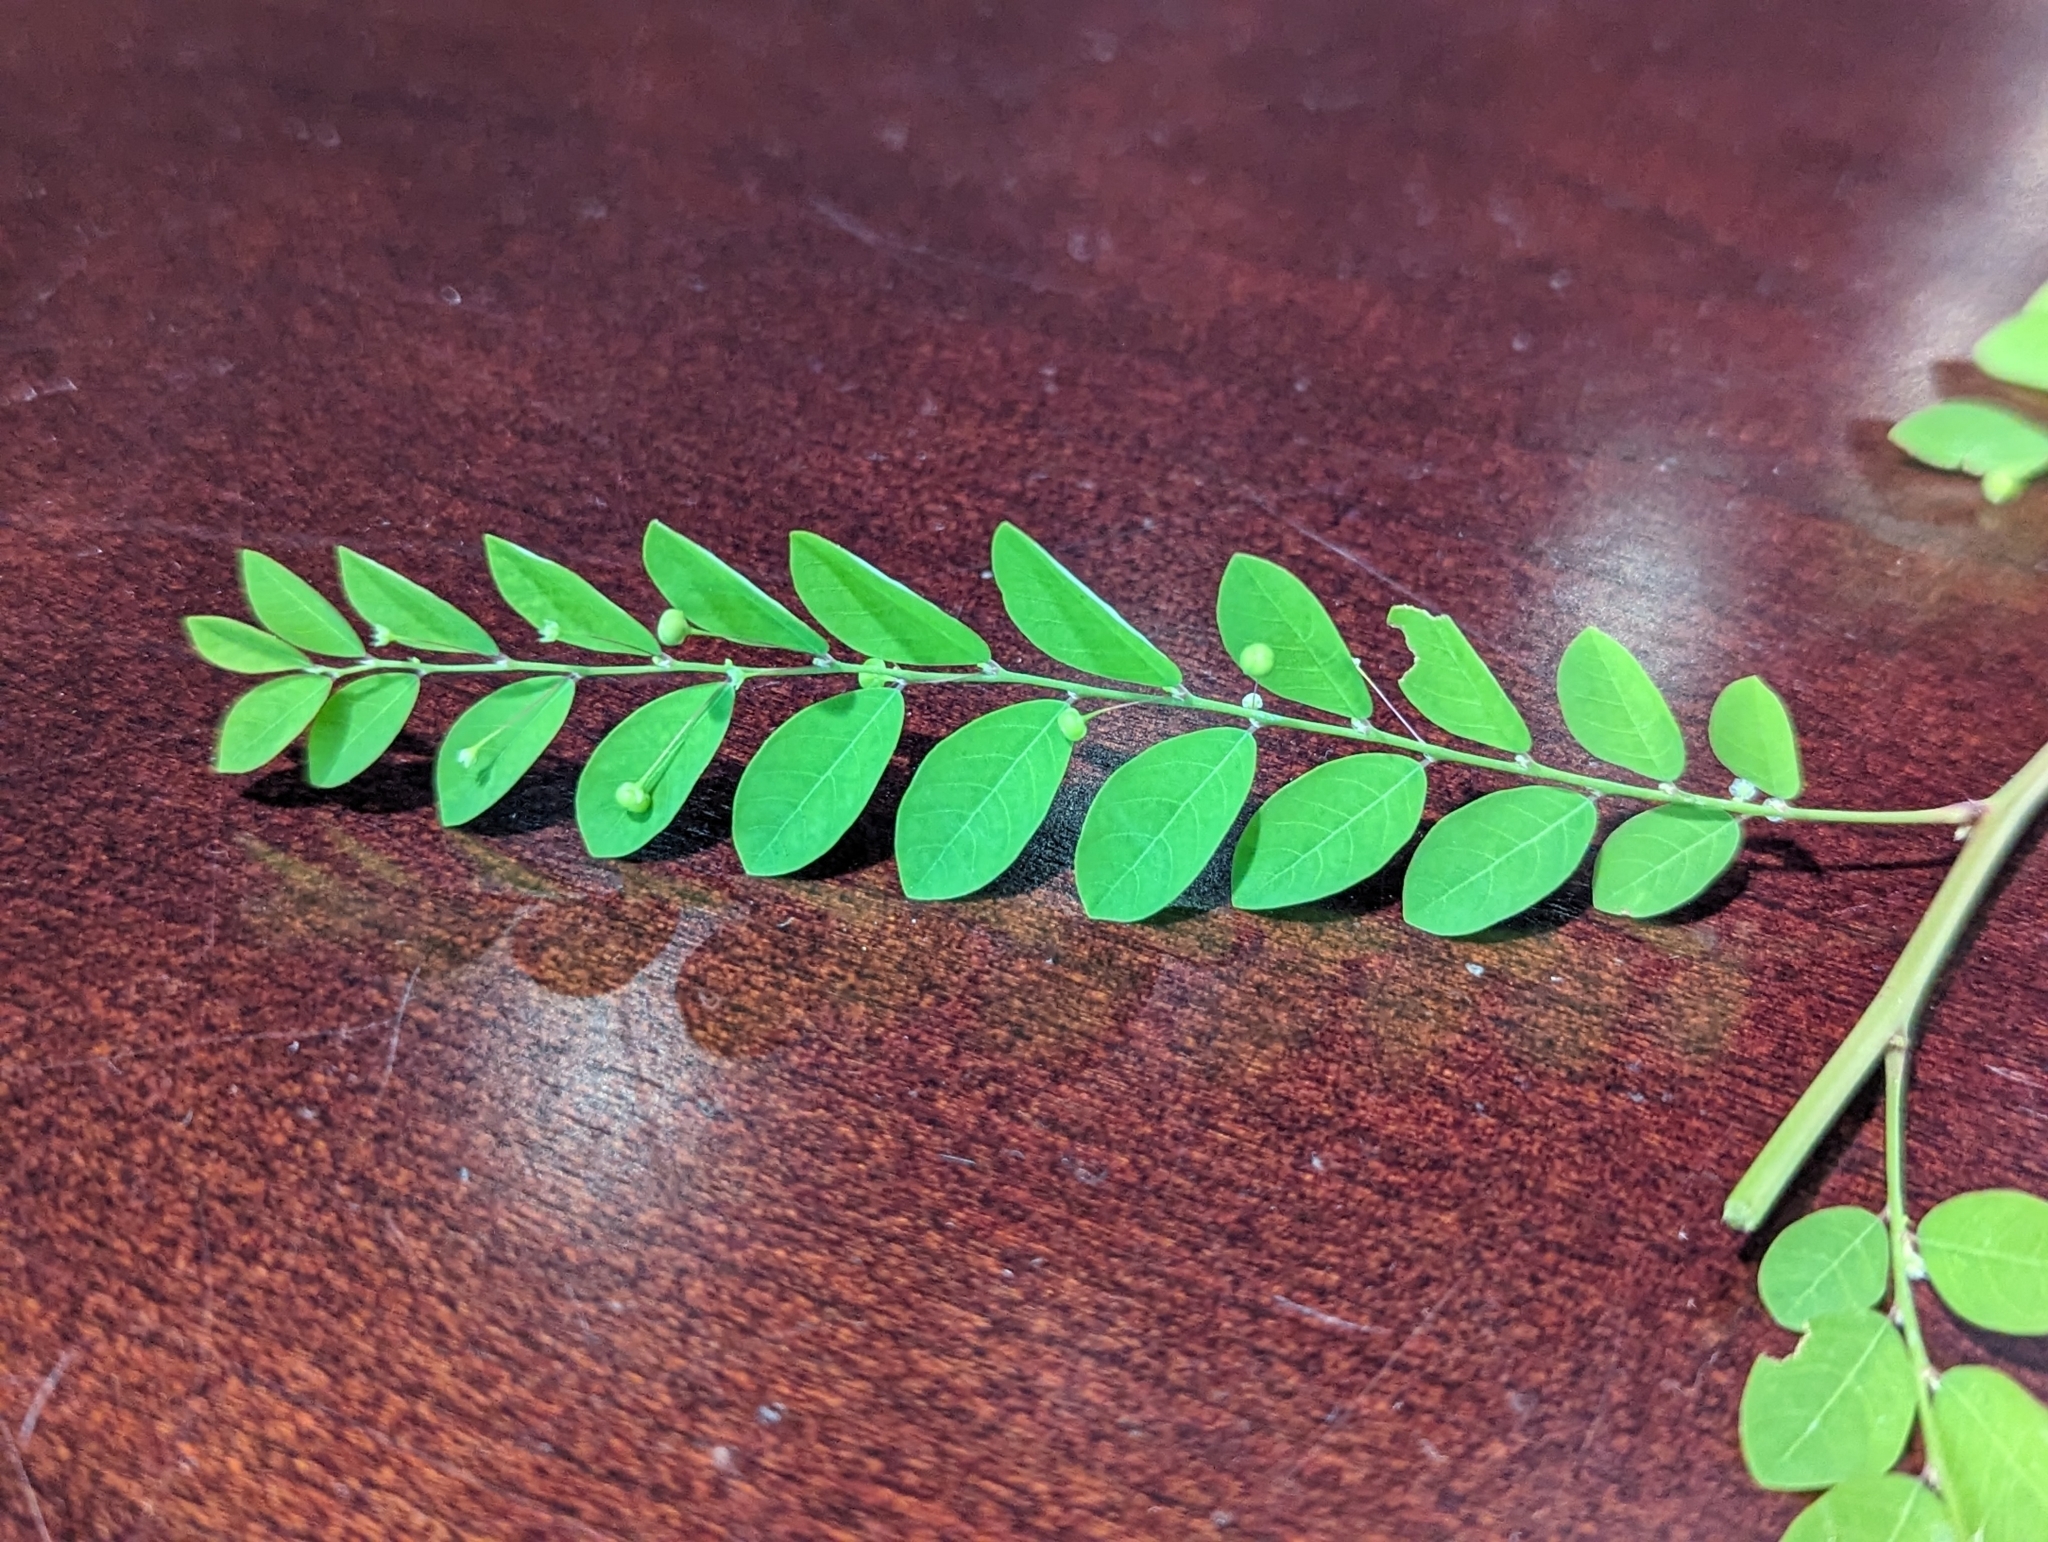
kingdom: Plantae
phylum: Tracheophyta
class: Magnoliopsida
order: Malpighiales
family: Phyllanthaceae
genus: Phyllanthus
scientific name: Phyllanthus tenellus
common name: Mascarene island leaf-flower
